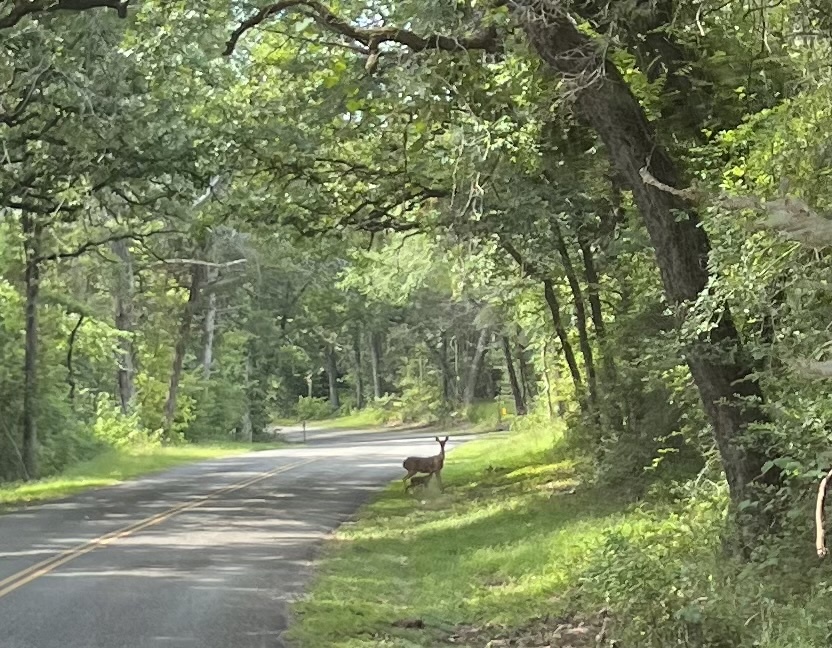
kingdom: Animalia
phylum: Chordata
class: Mammalia
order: Artiodactyla
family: Cervidae
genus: Odocoileus
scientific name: Odocoileus virginianus
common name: White-tailed deer
